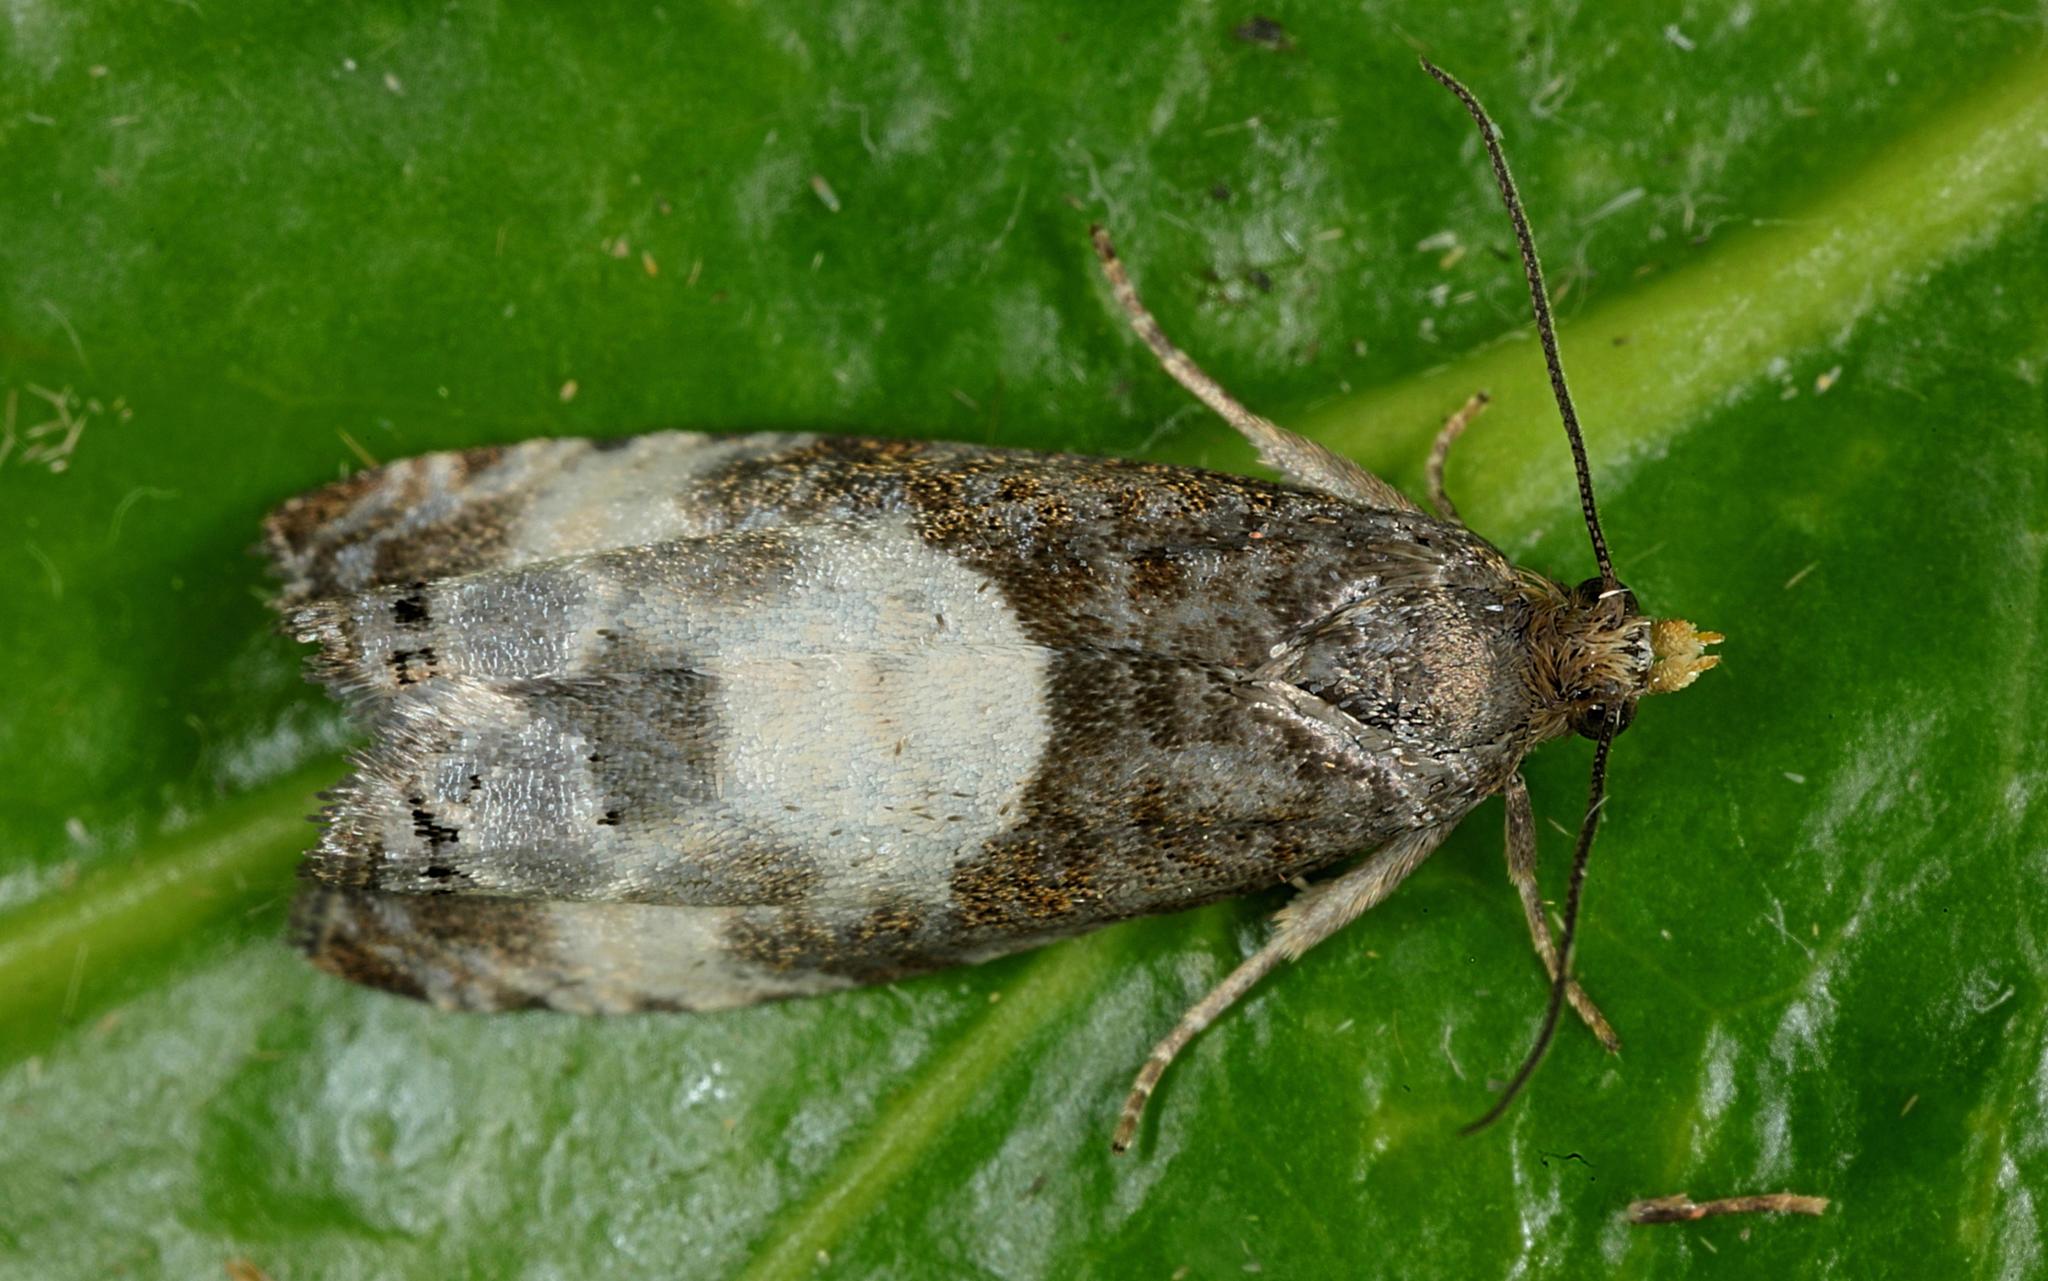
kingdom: Animalia
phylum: Arthropoda
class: Insecta
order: Lepidoptera
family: Tortricidae
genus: Notocelia
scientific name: Notocelia cynosbatella
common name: Yellow-faced bell moth
